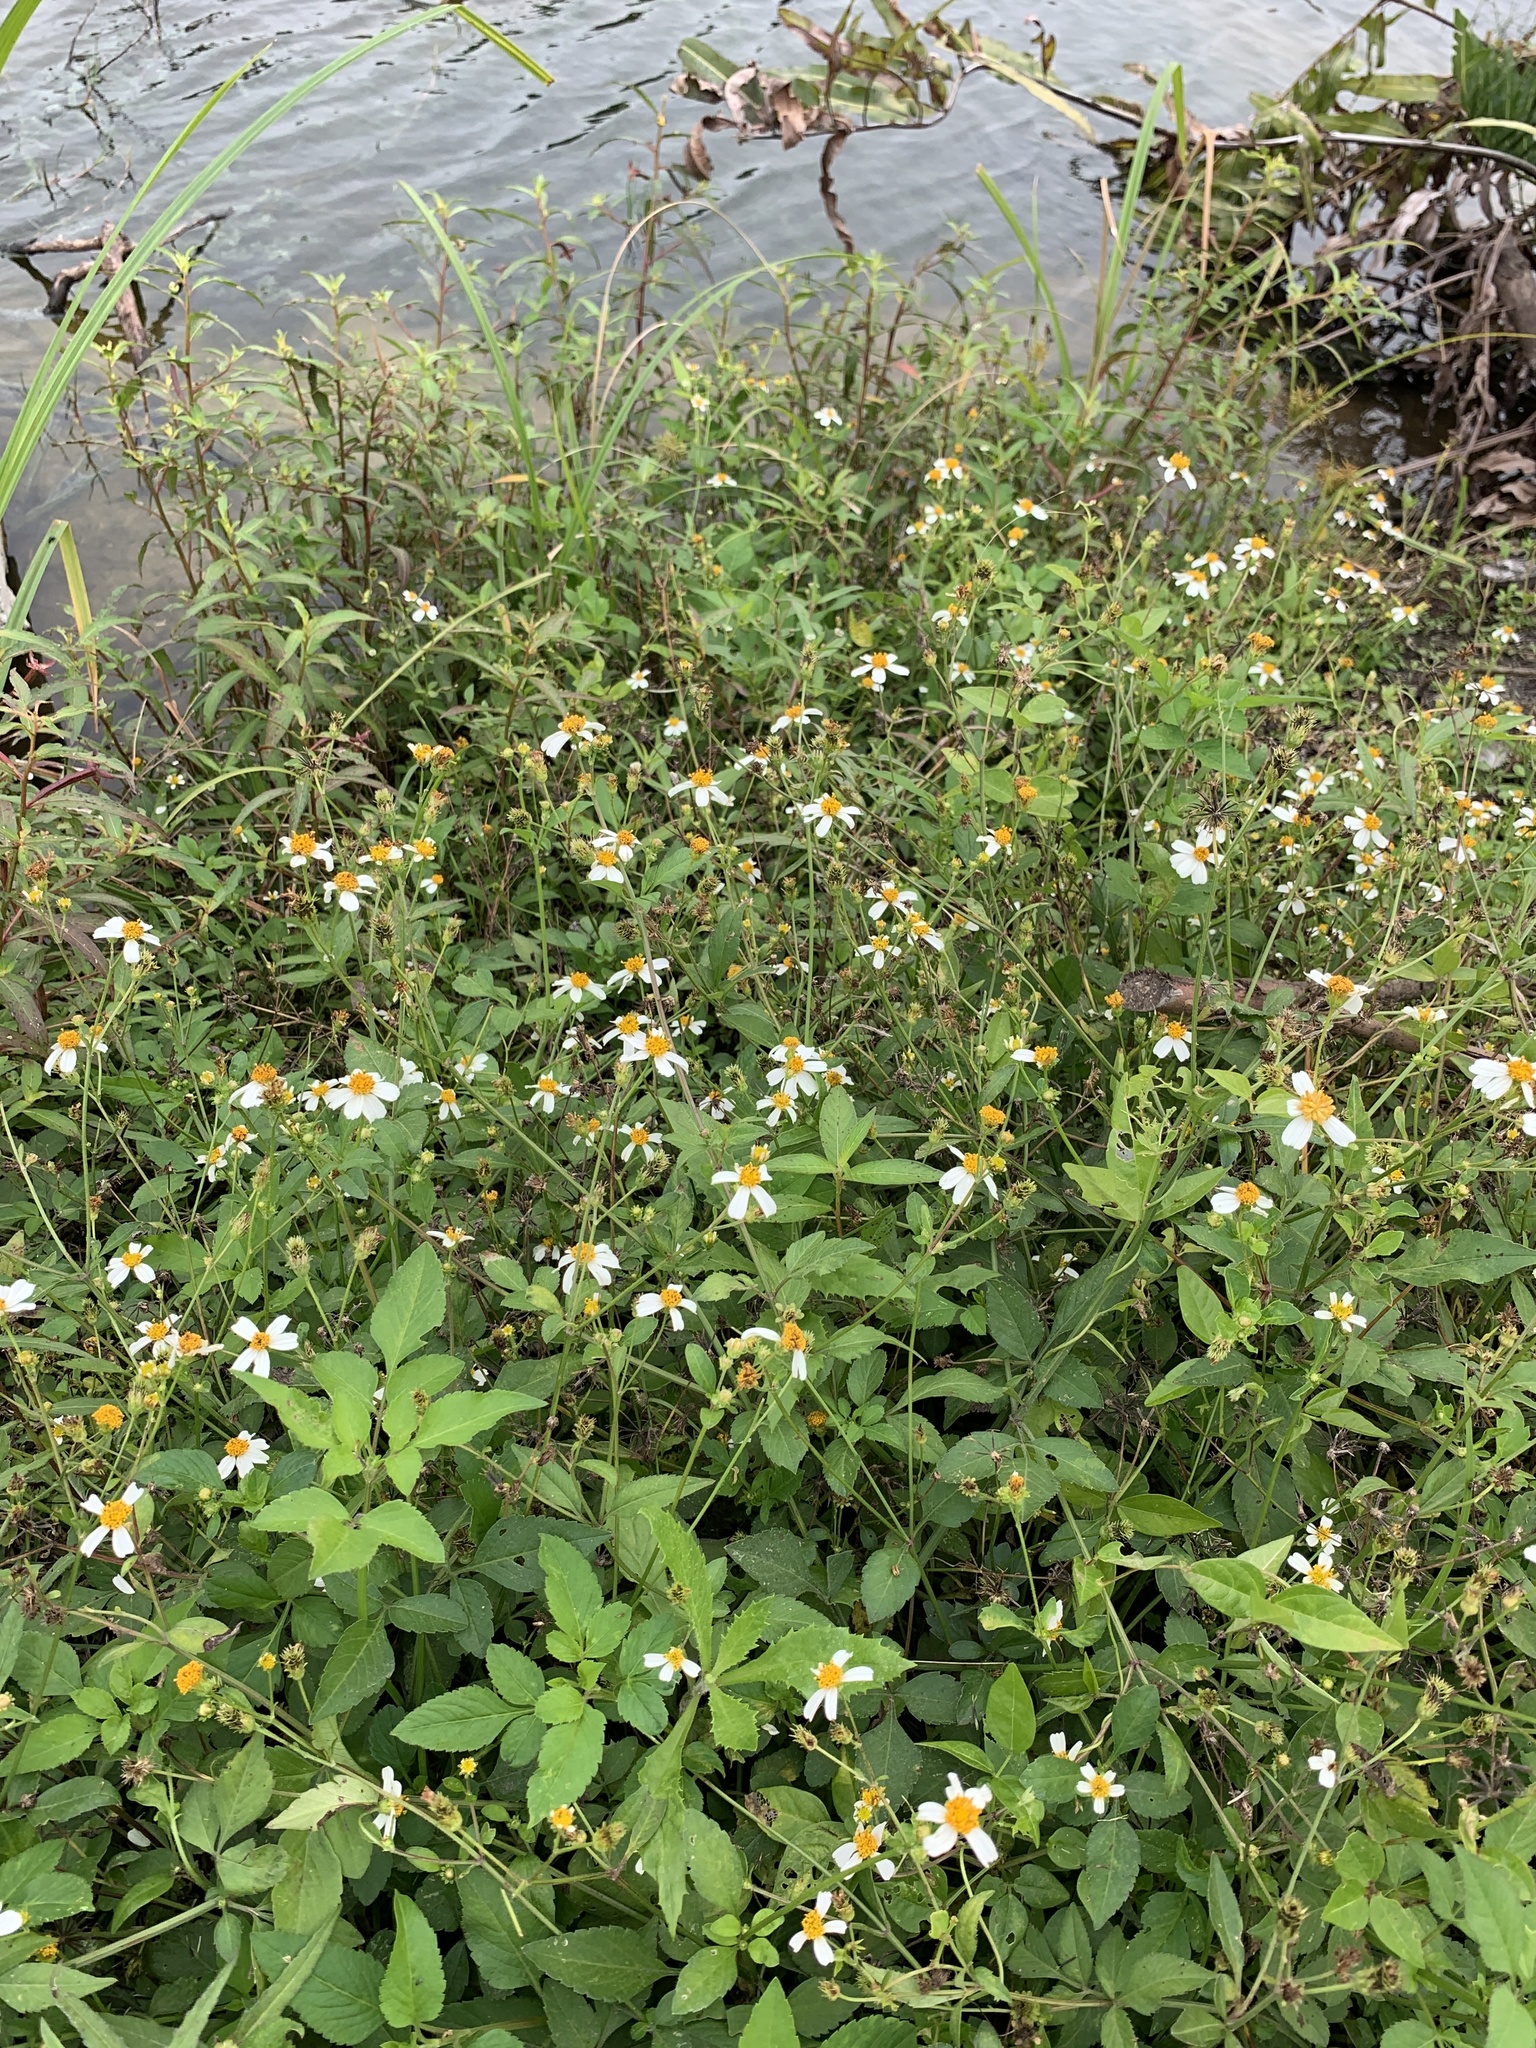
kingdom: Plantae
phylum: Tracheophyta
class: Magnoliopsida
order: Asterales
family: Asteraceae
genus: Bidens
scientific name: Bidens alba
